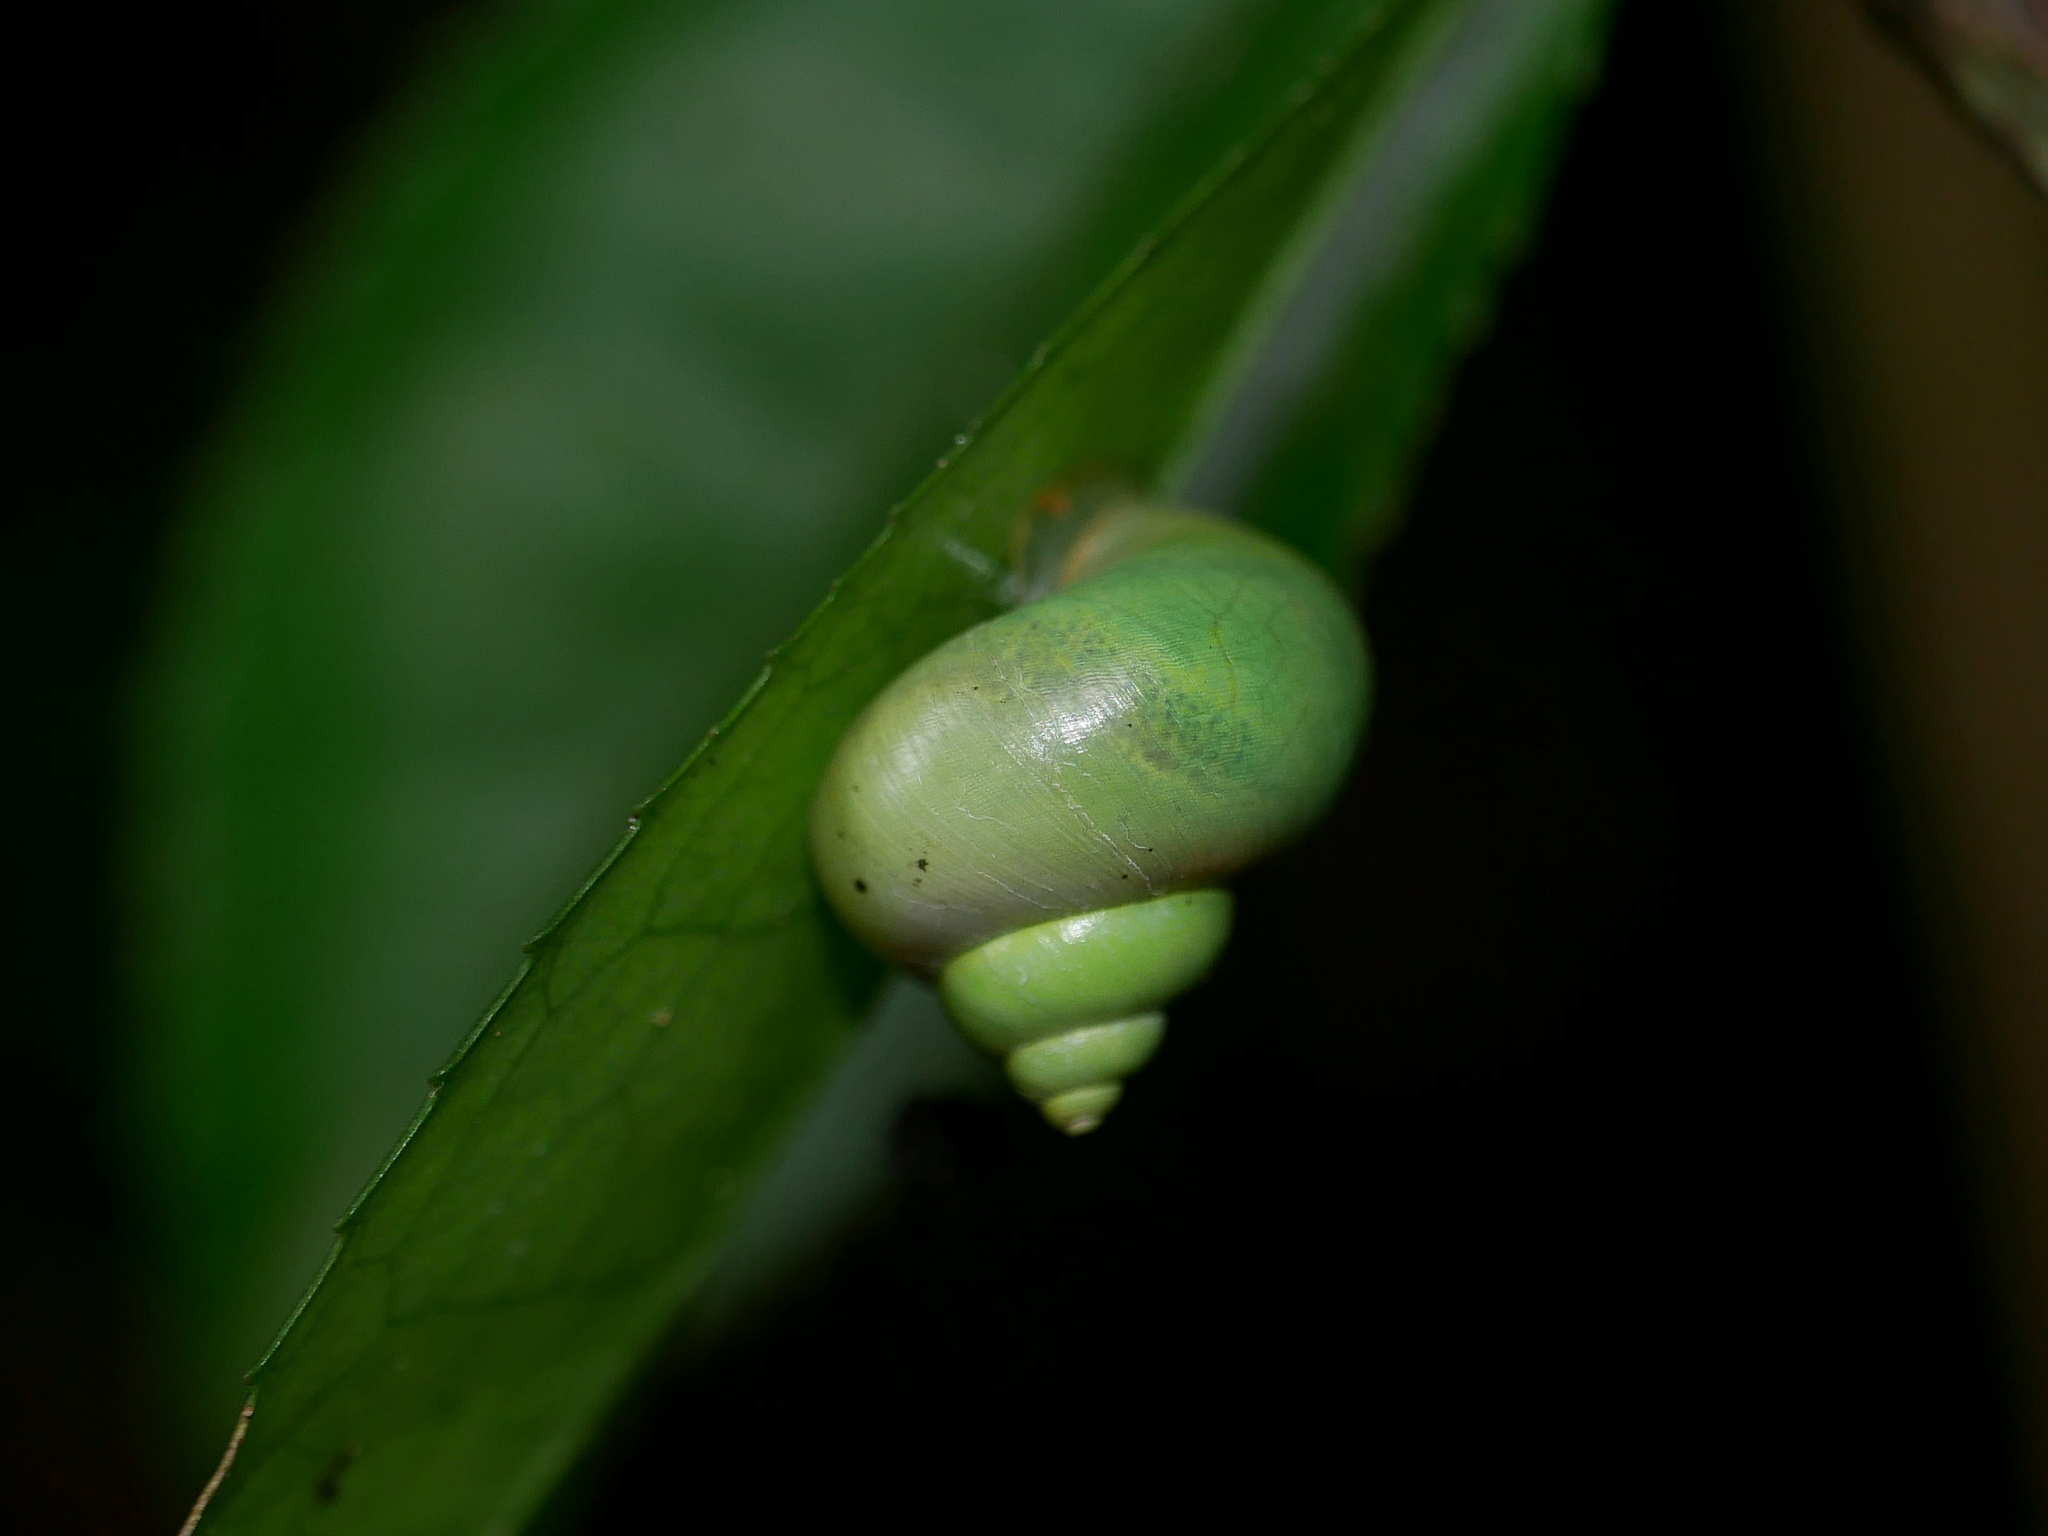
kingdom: Animalia
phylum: Mollusca
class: Gastropoda
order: Architaenioglossa
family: Cyclophoridae
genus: Leptopoma
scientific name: Leptopoma nitidum
